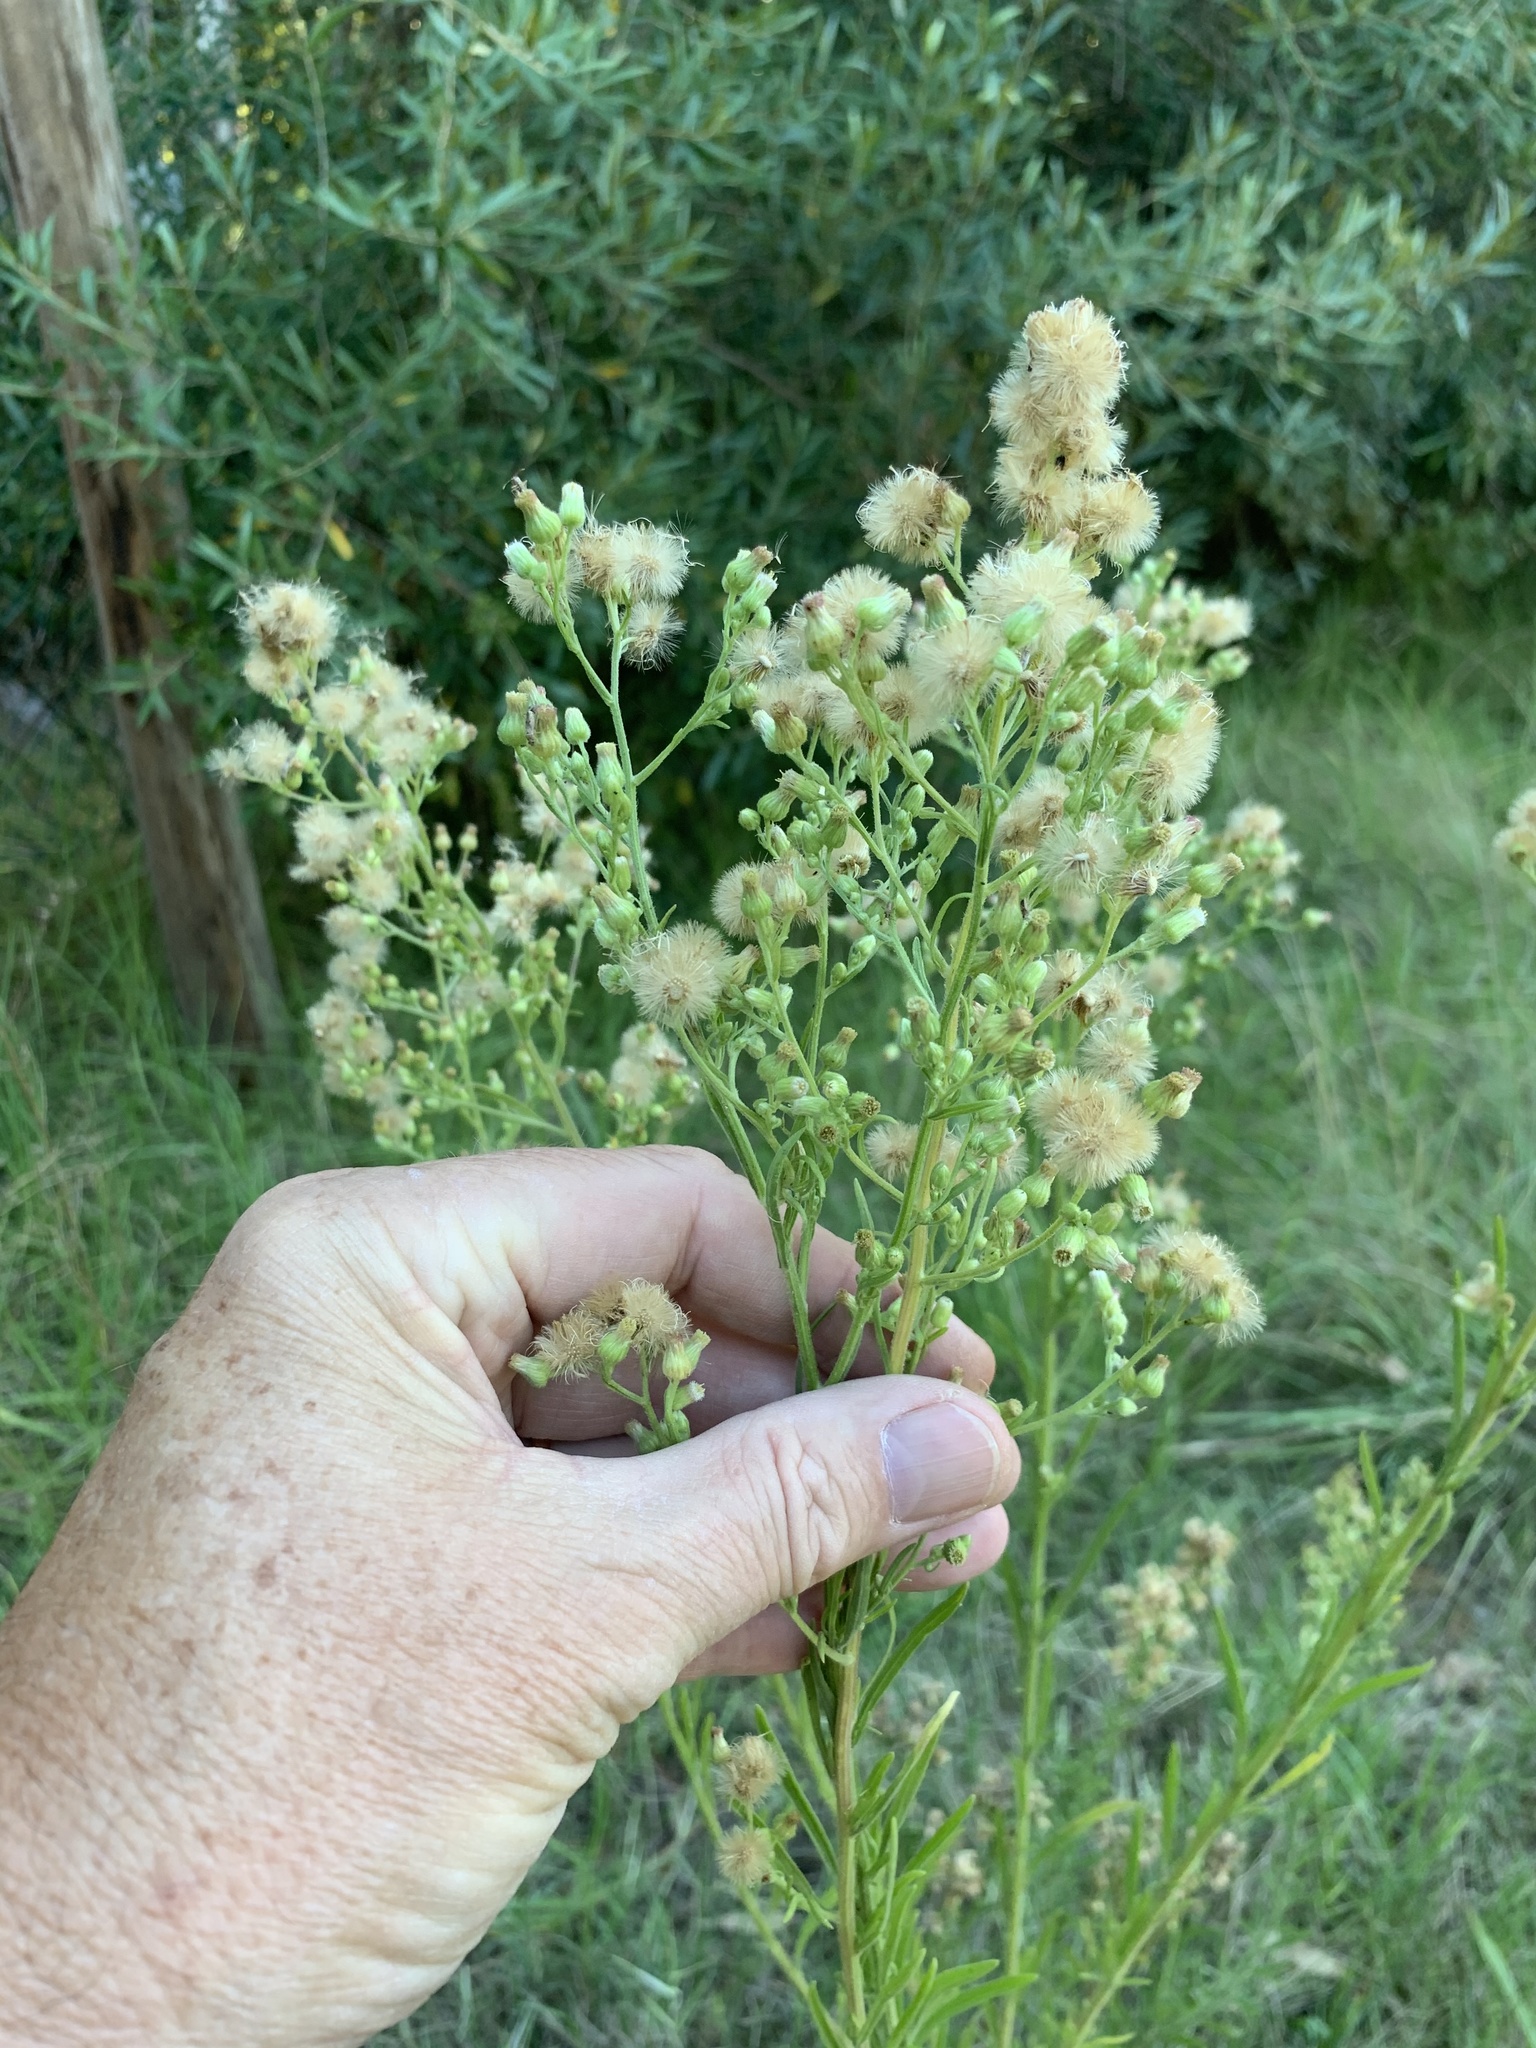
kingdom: Plantae
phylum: Tracheophyta
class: Magnoliopsida
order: Asterales
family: Asteraceae
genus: Erigeron
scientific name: Erigeron sumatrensis
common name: Daisy
